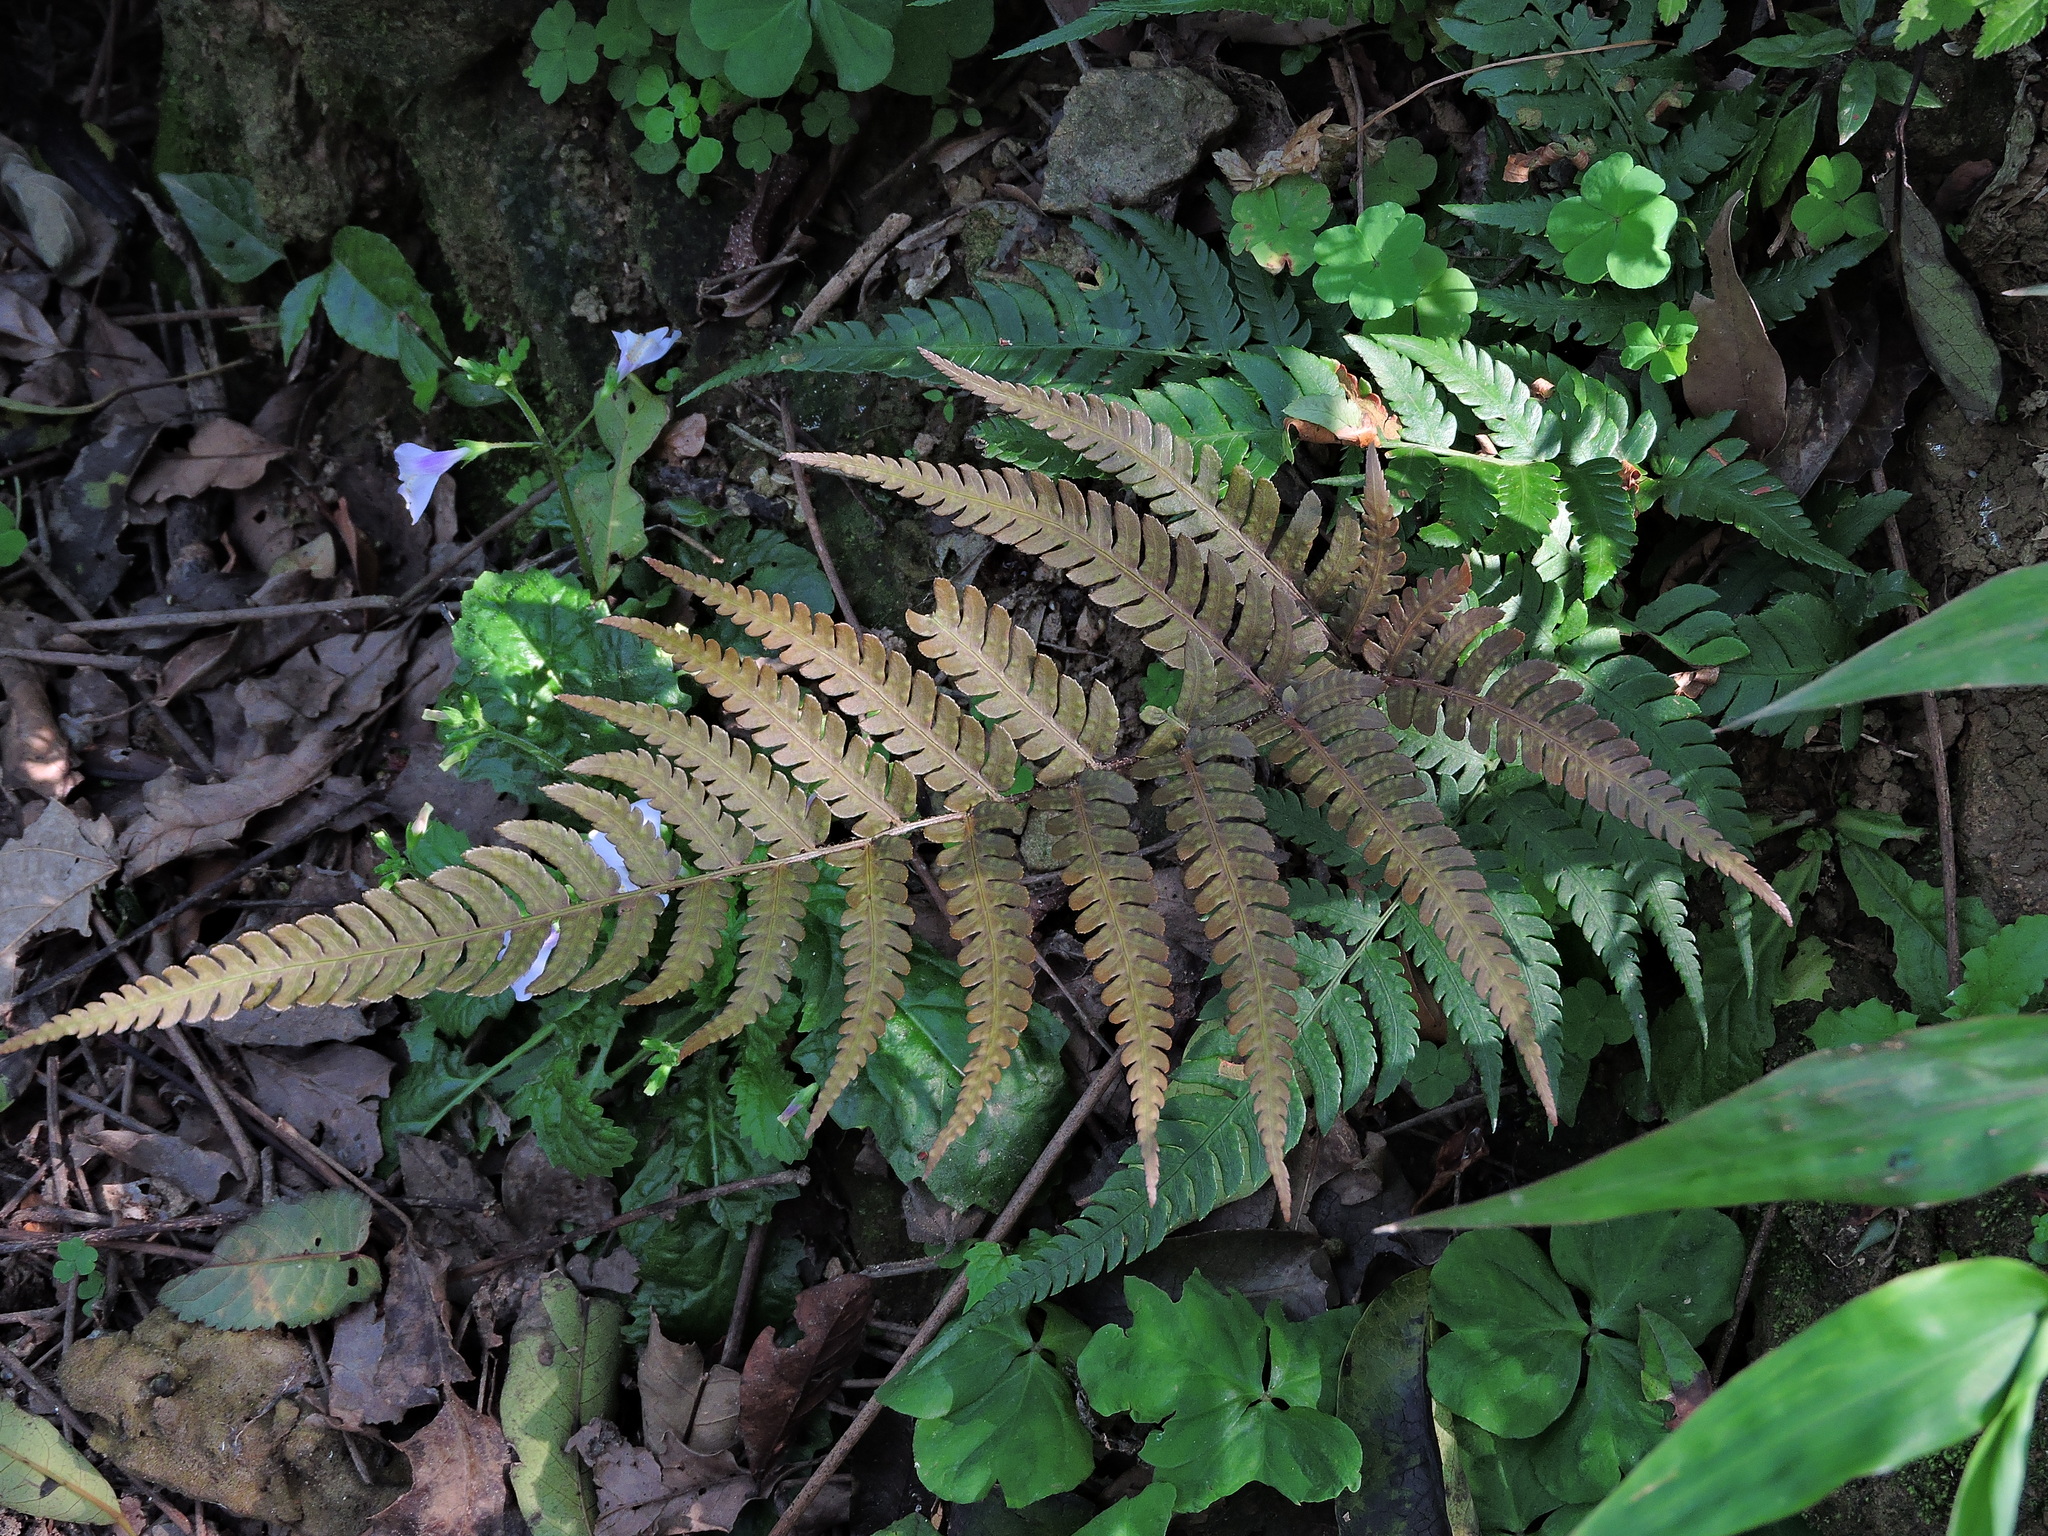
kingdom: Plantae
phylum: Tracheophyta
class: Polypodiopsida
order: Polypodiales
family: Dryopteridaceae
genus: Dryopteris
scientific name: Dryopteris varia
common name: Japanese holly fern
